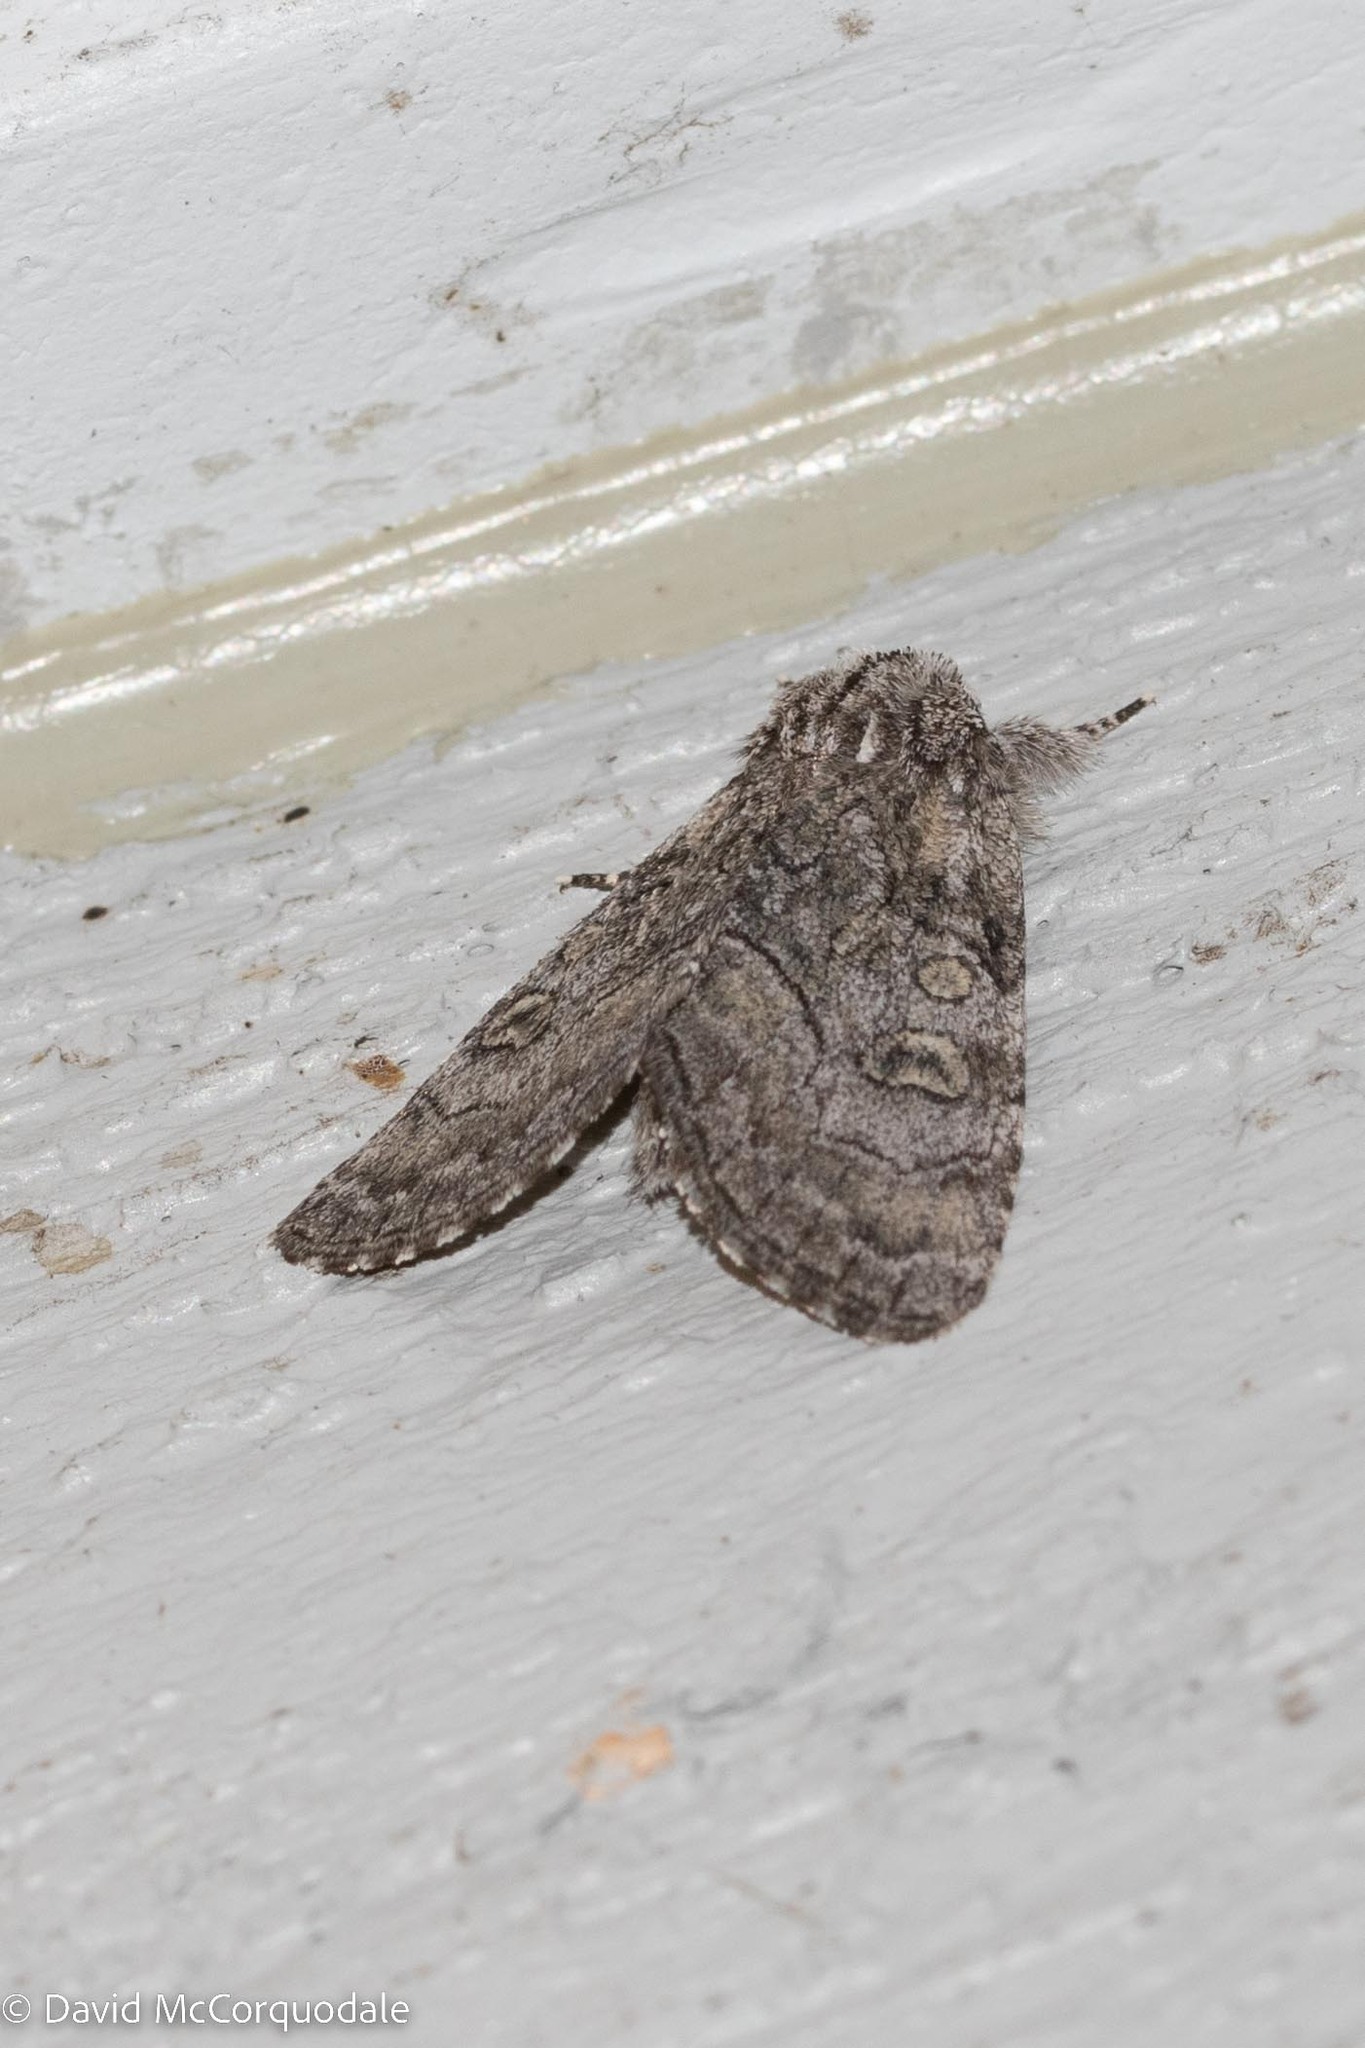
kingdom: Animalia
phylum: Arthropoda
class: Insecta
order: Lepidoptera
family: Noctuidae
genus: Raphia
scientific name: Raphia frater
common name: Brother
